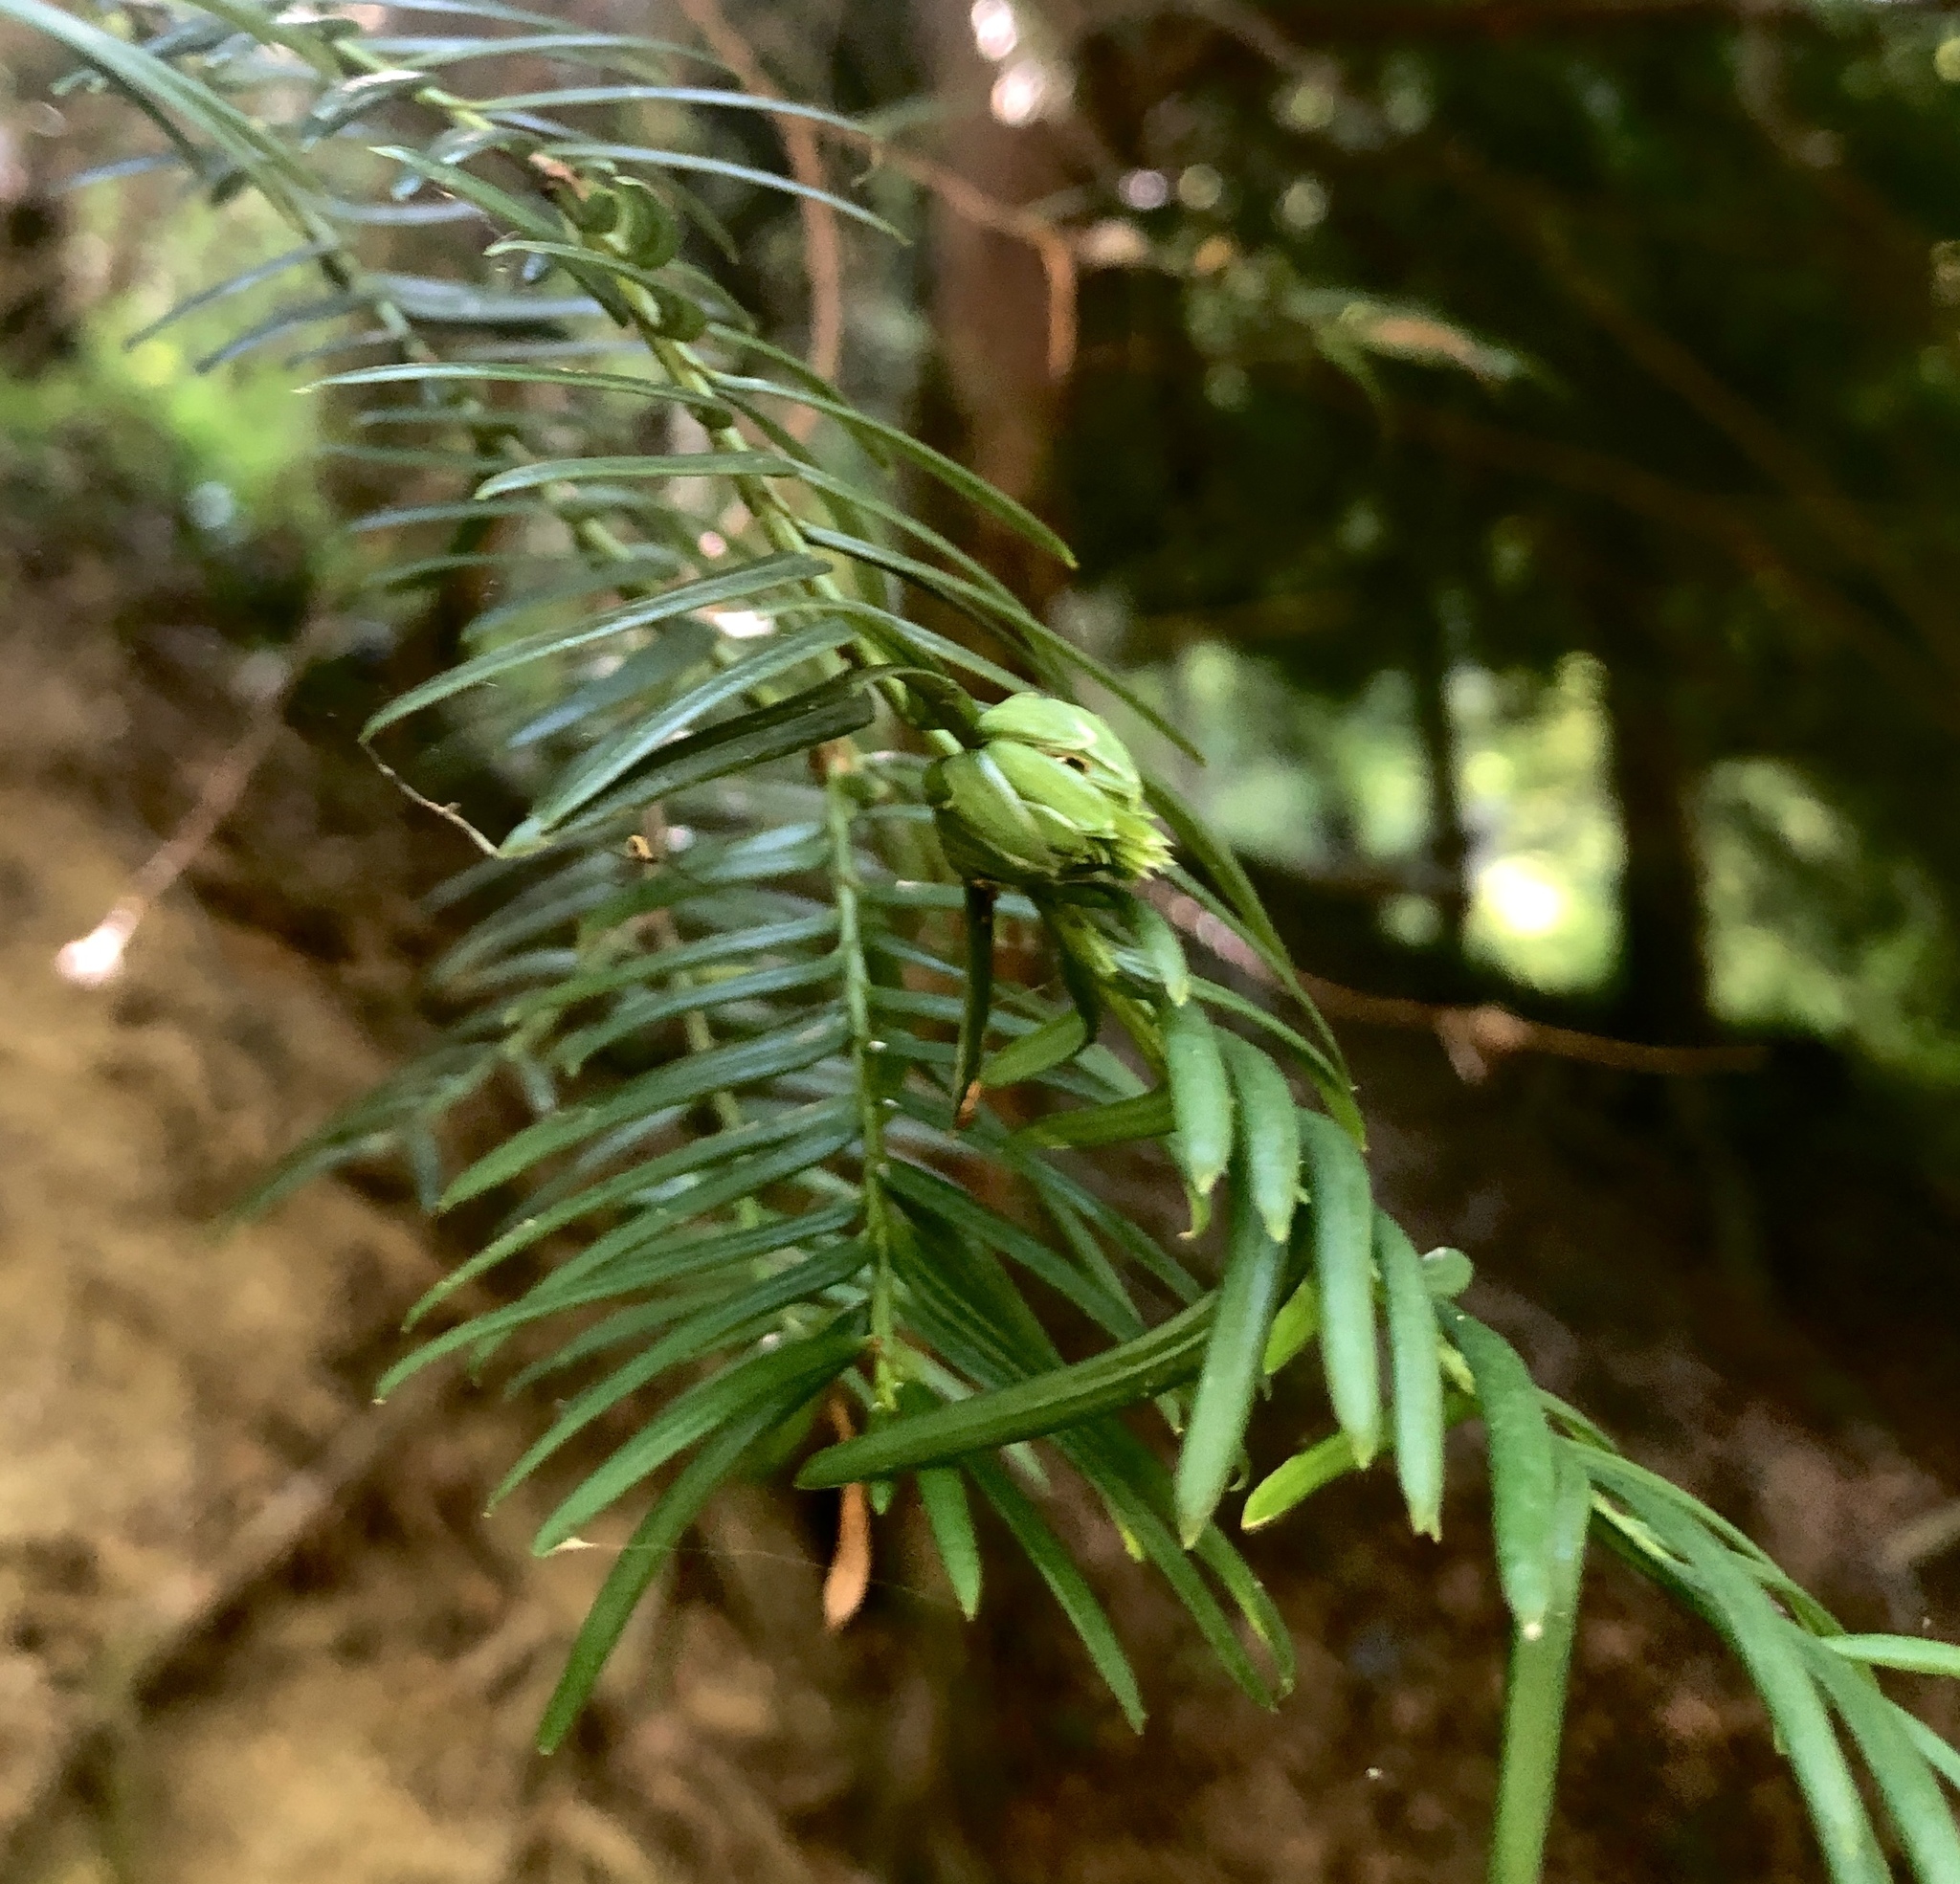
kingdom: Plantae
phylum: Tracheophyta
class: Pinopsida
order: Pinales
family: Taxaceae
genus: Taxus
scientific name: Taxus baccata
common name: Yew
